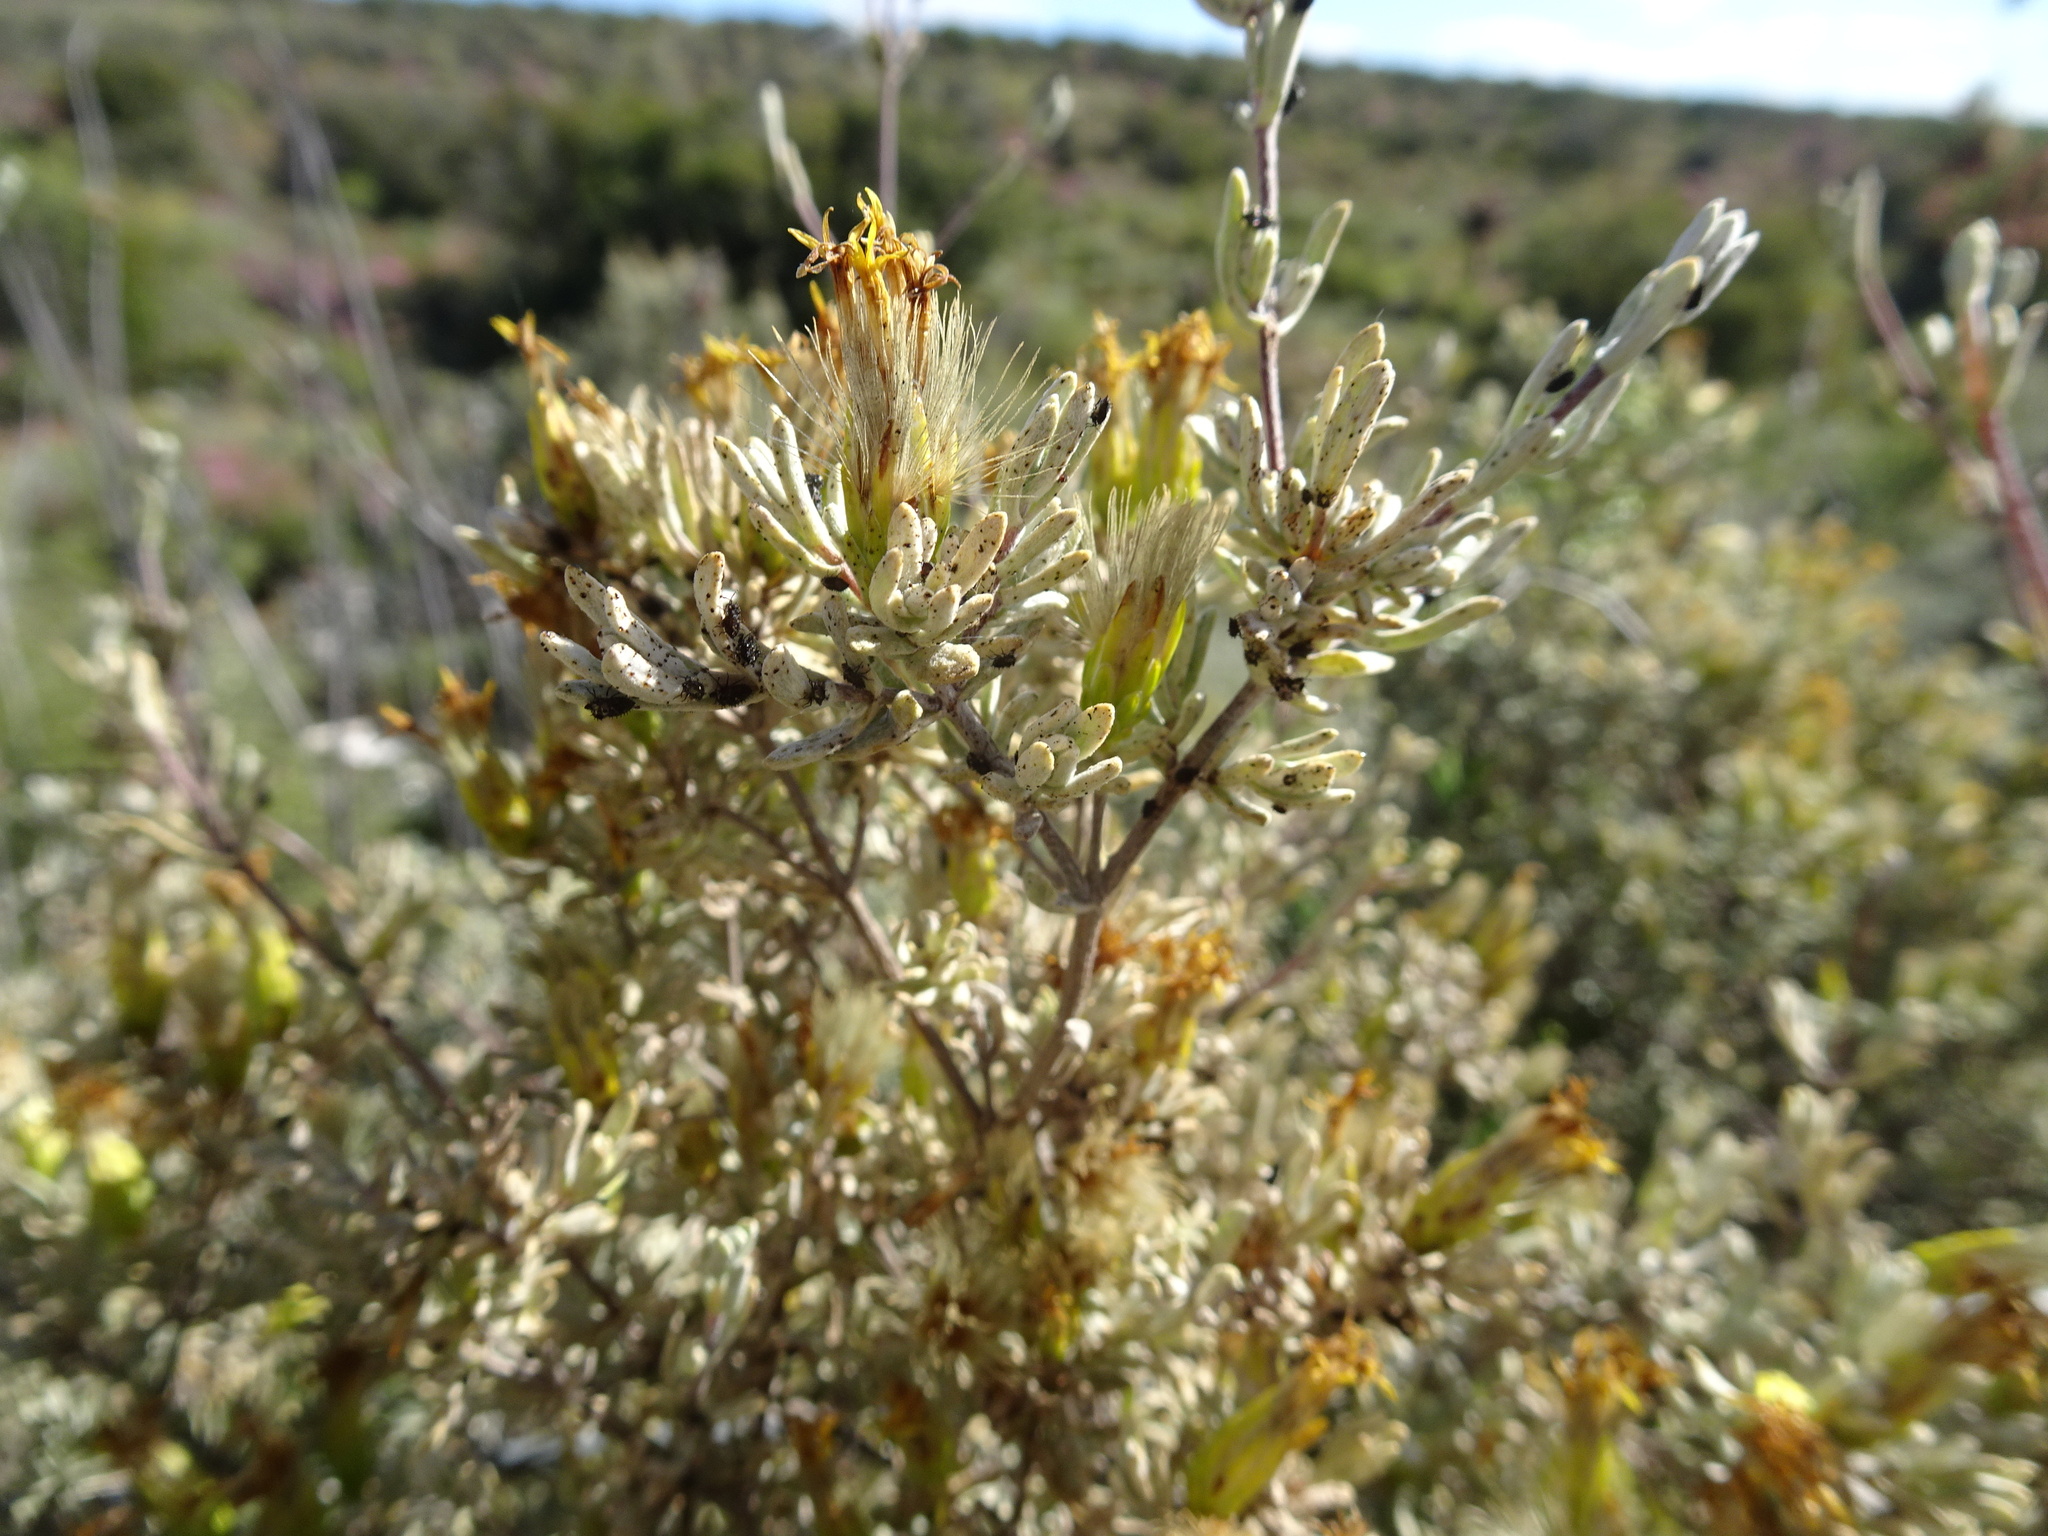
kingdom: Plantae
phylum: Tracheophyta
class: Magnoliopsida
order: Asterales
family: Asteraceae
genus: Pteronia
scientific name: Pteronia incana
